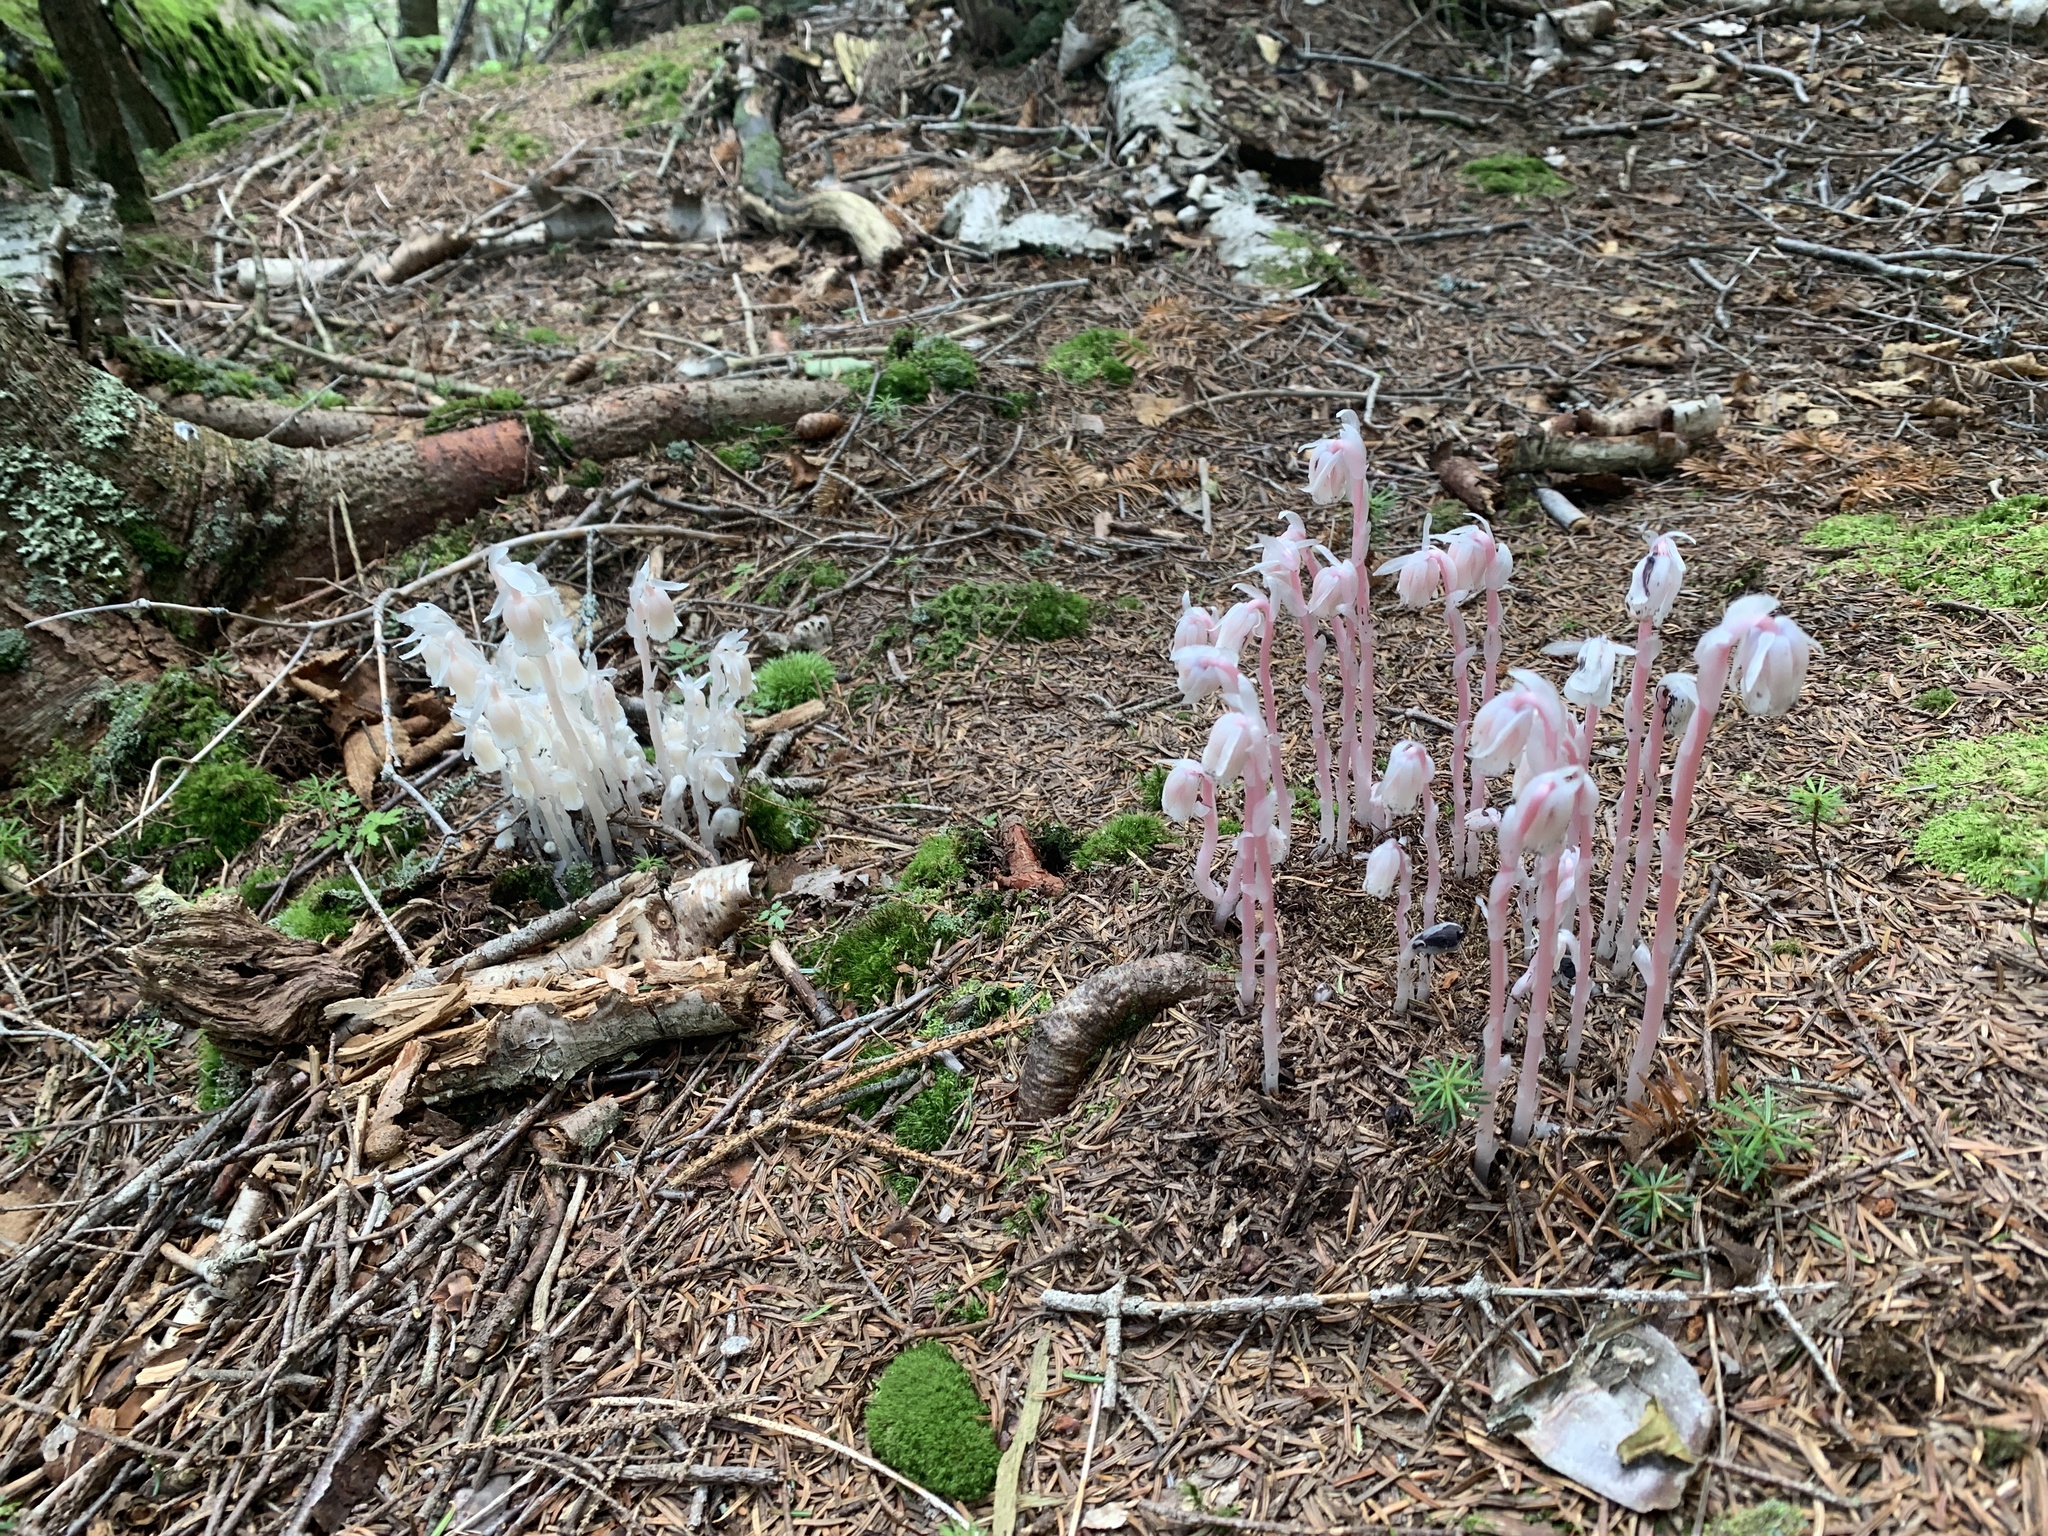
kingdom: Plantae
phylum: Tracheophyta
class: Magnoliopsida
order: Ericales
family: Ericaceae
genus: Monotropa
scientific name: Monotropa uniflora
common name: Convulsion root
